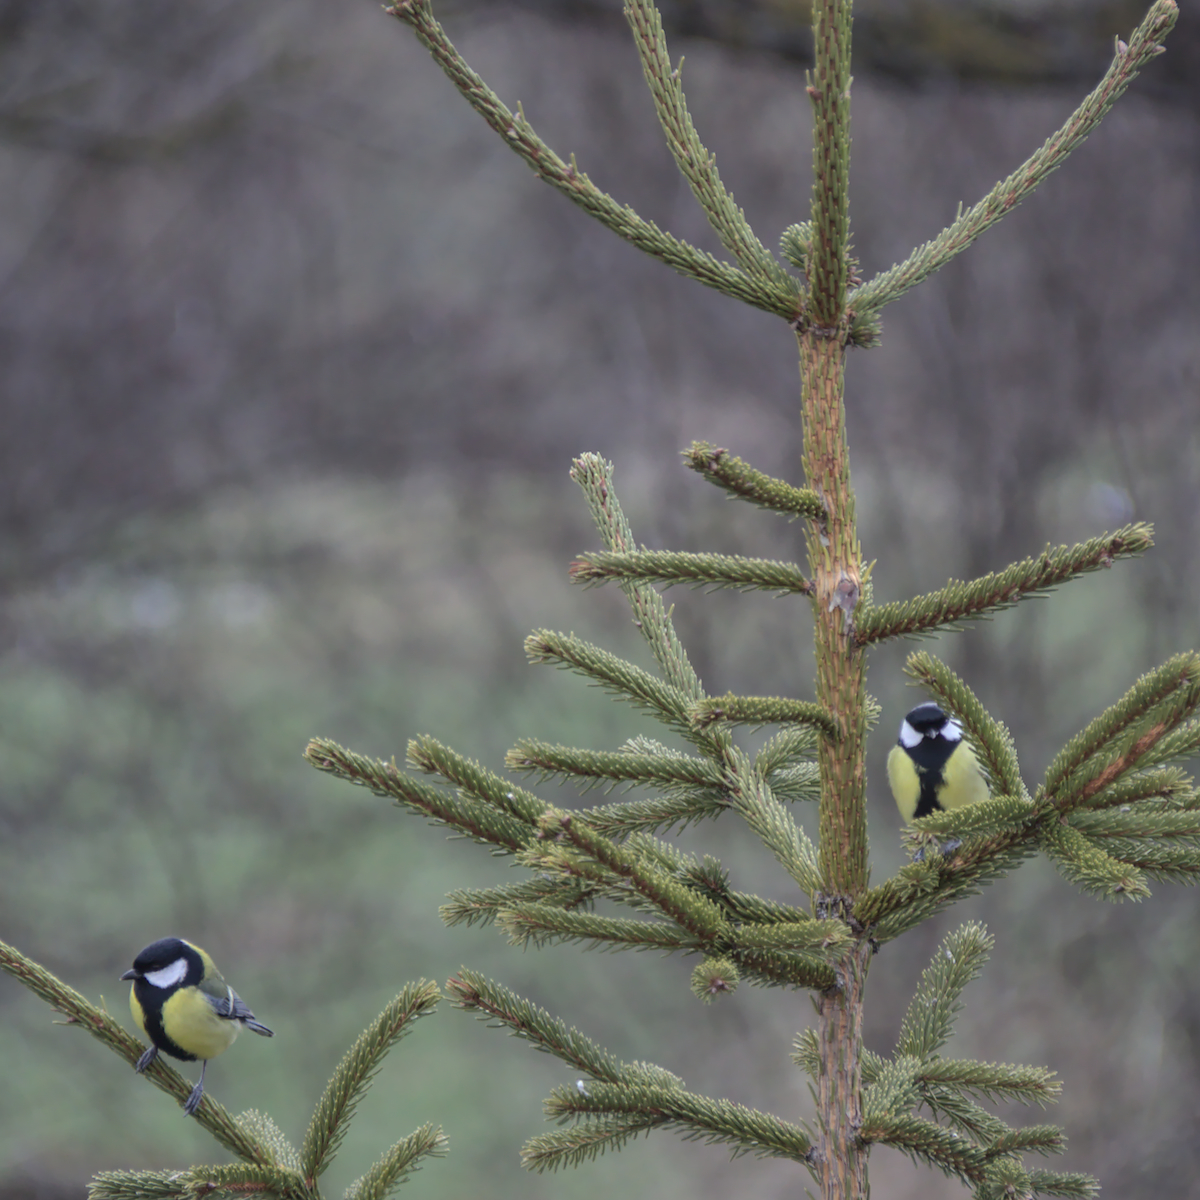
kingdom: Animalia
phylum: Chordata
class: Aves
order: Passeriformes
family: Paridae
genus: Parus
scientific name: Parus major
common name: Great tit
